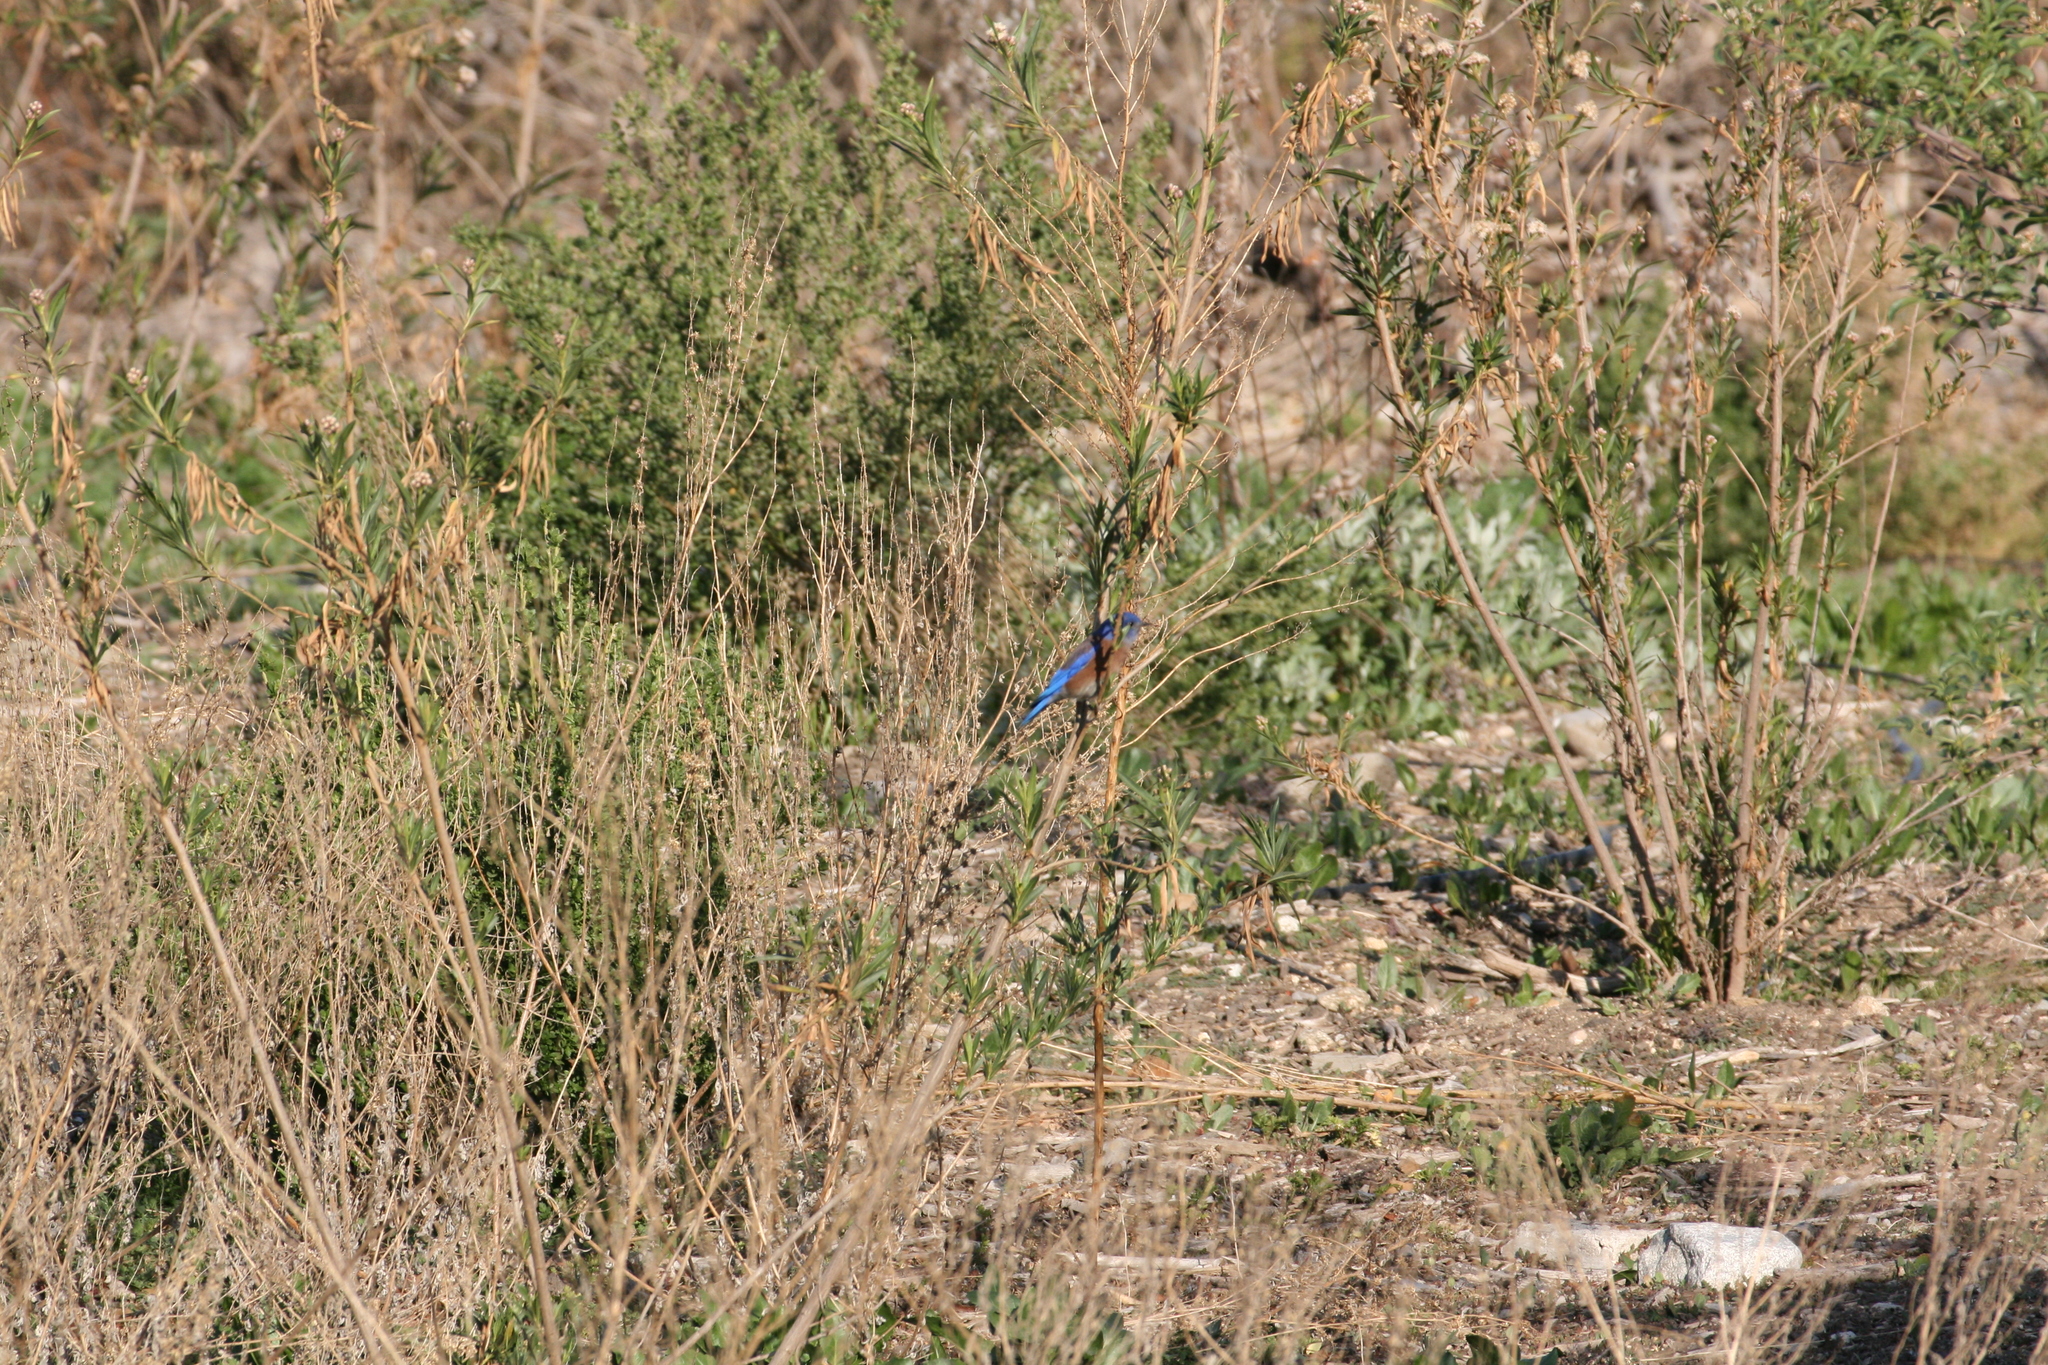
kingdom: Animalia
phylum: Chordata
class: Aves
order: Passeriformes
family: Turdidae
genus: Sialia
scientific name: Sialia mexicana
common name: Western bluebird
